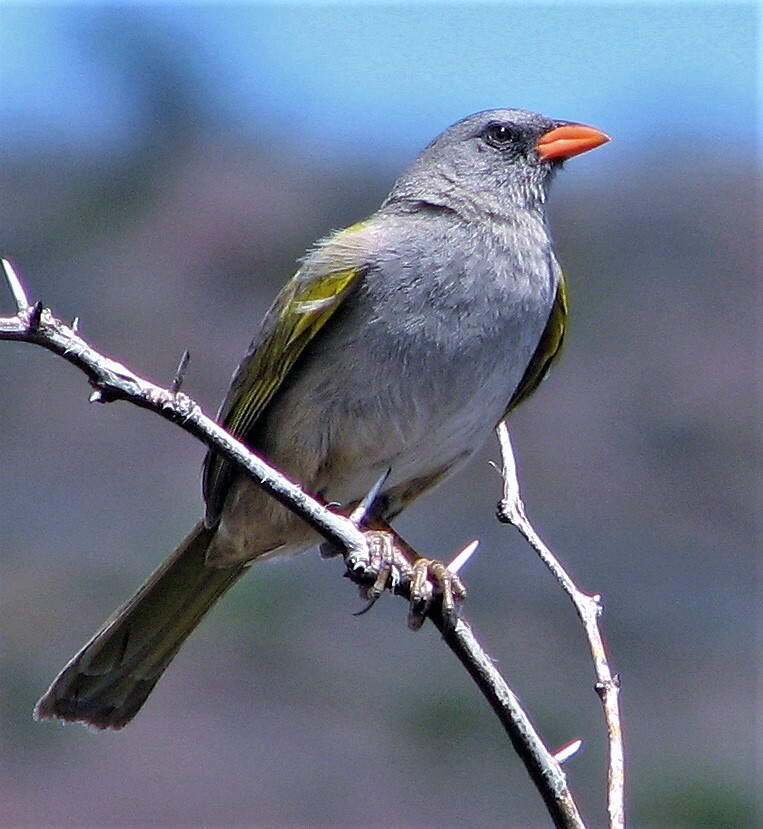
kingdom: Animalia
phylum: Chordata
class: Aves
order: Passeriformes
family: Thraupidae
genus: Embernagra
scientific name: Embernagra platensis
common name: Pampa finch
